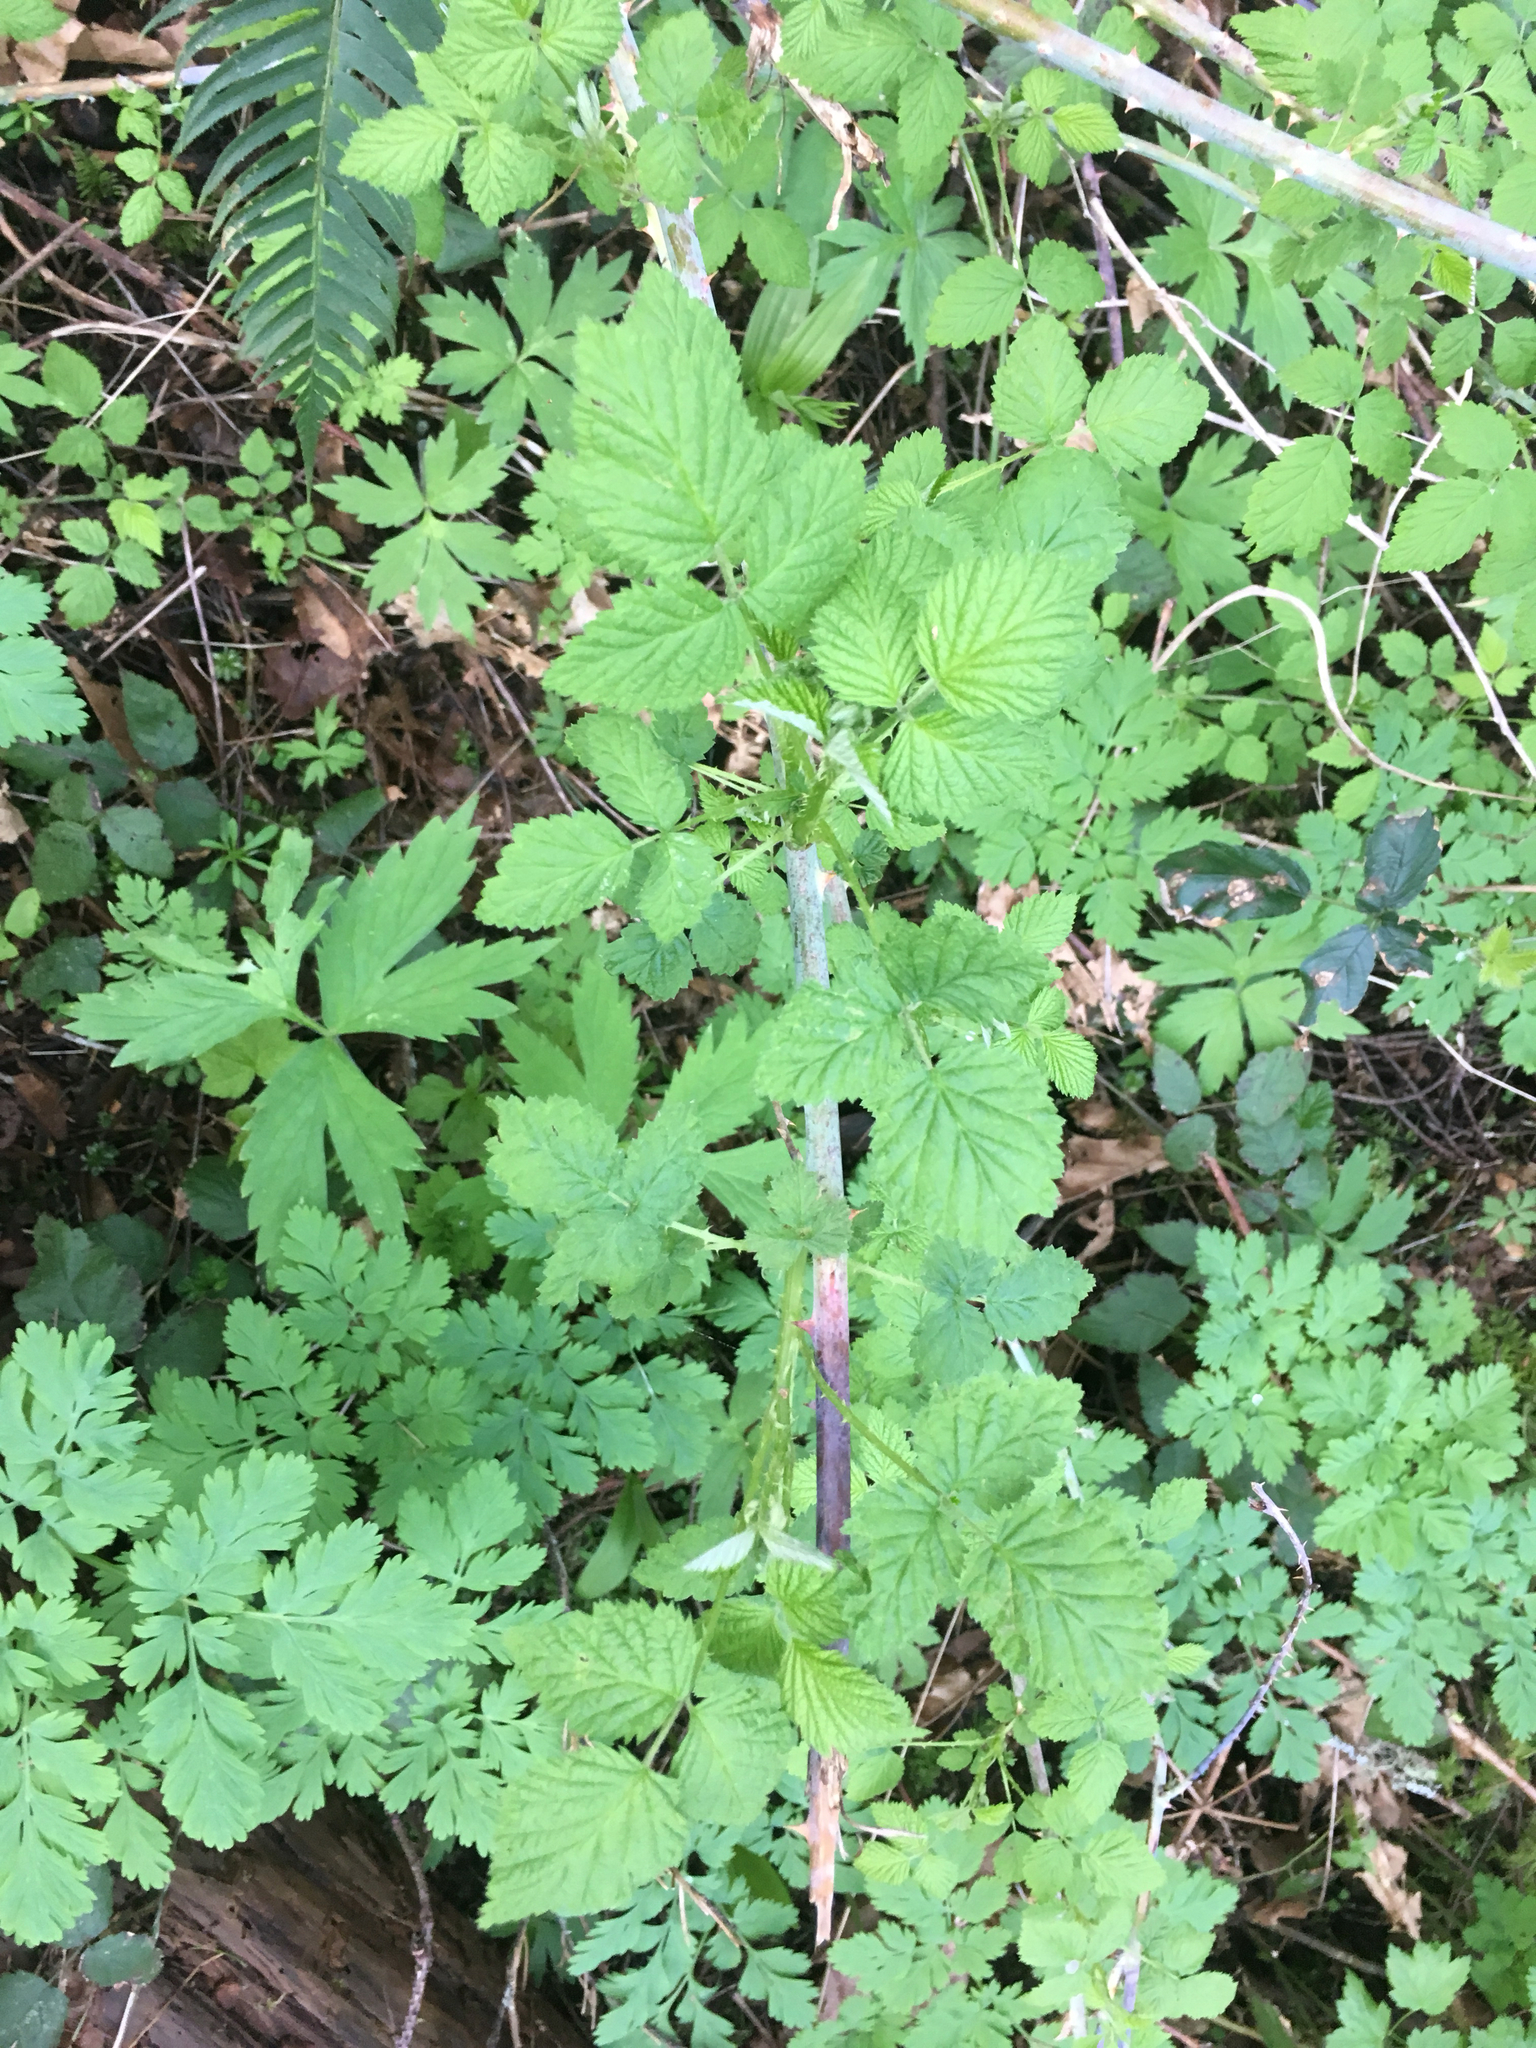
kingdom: Plantae
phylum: Tracheophyta
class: Magnoliopsida
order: Rosales
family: Rosaceae
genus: Rubus
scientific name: Rubus ursinus
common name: Pacific blackberry
